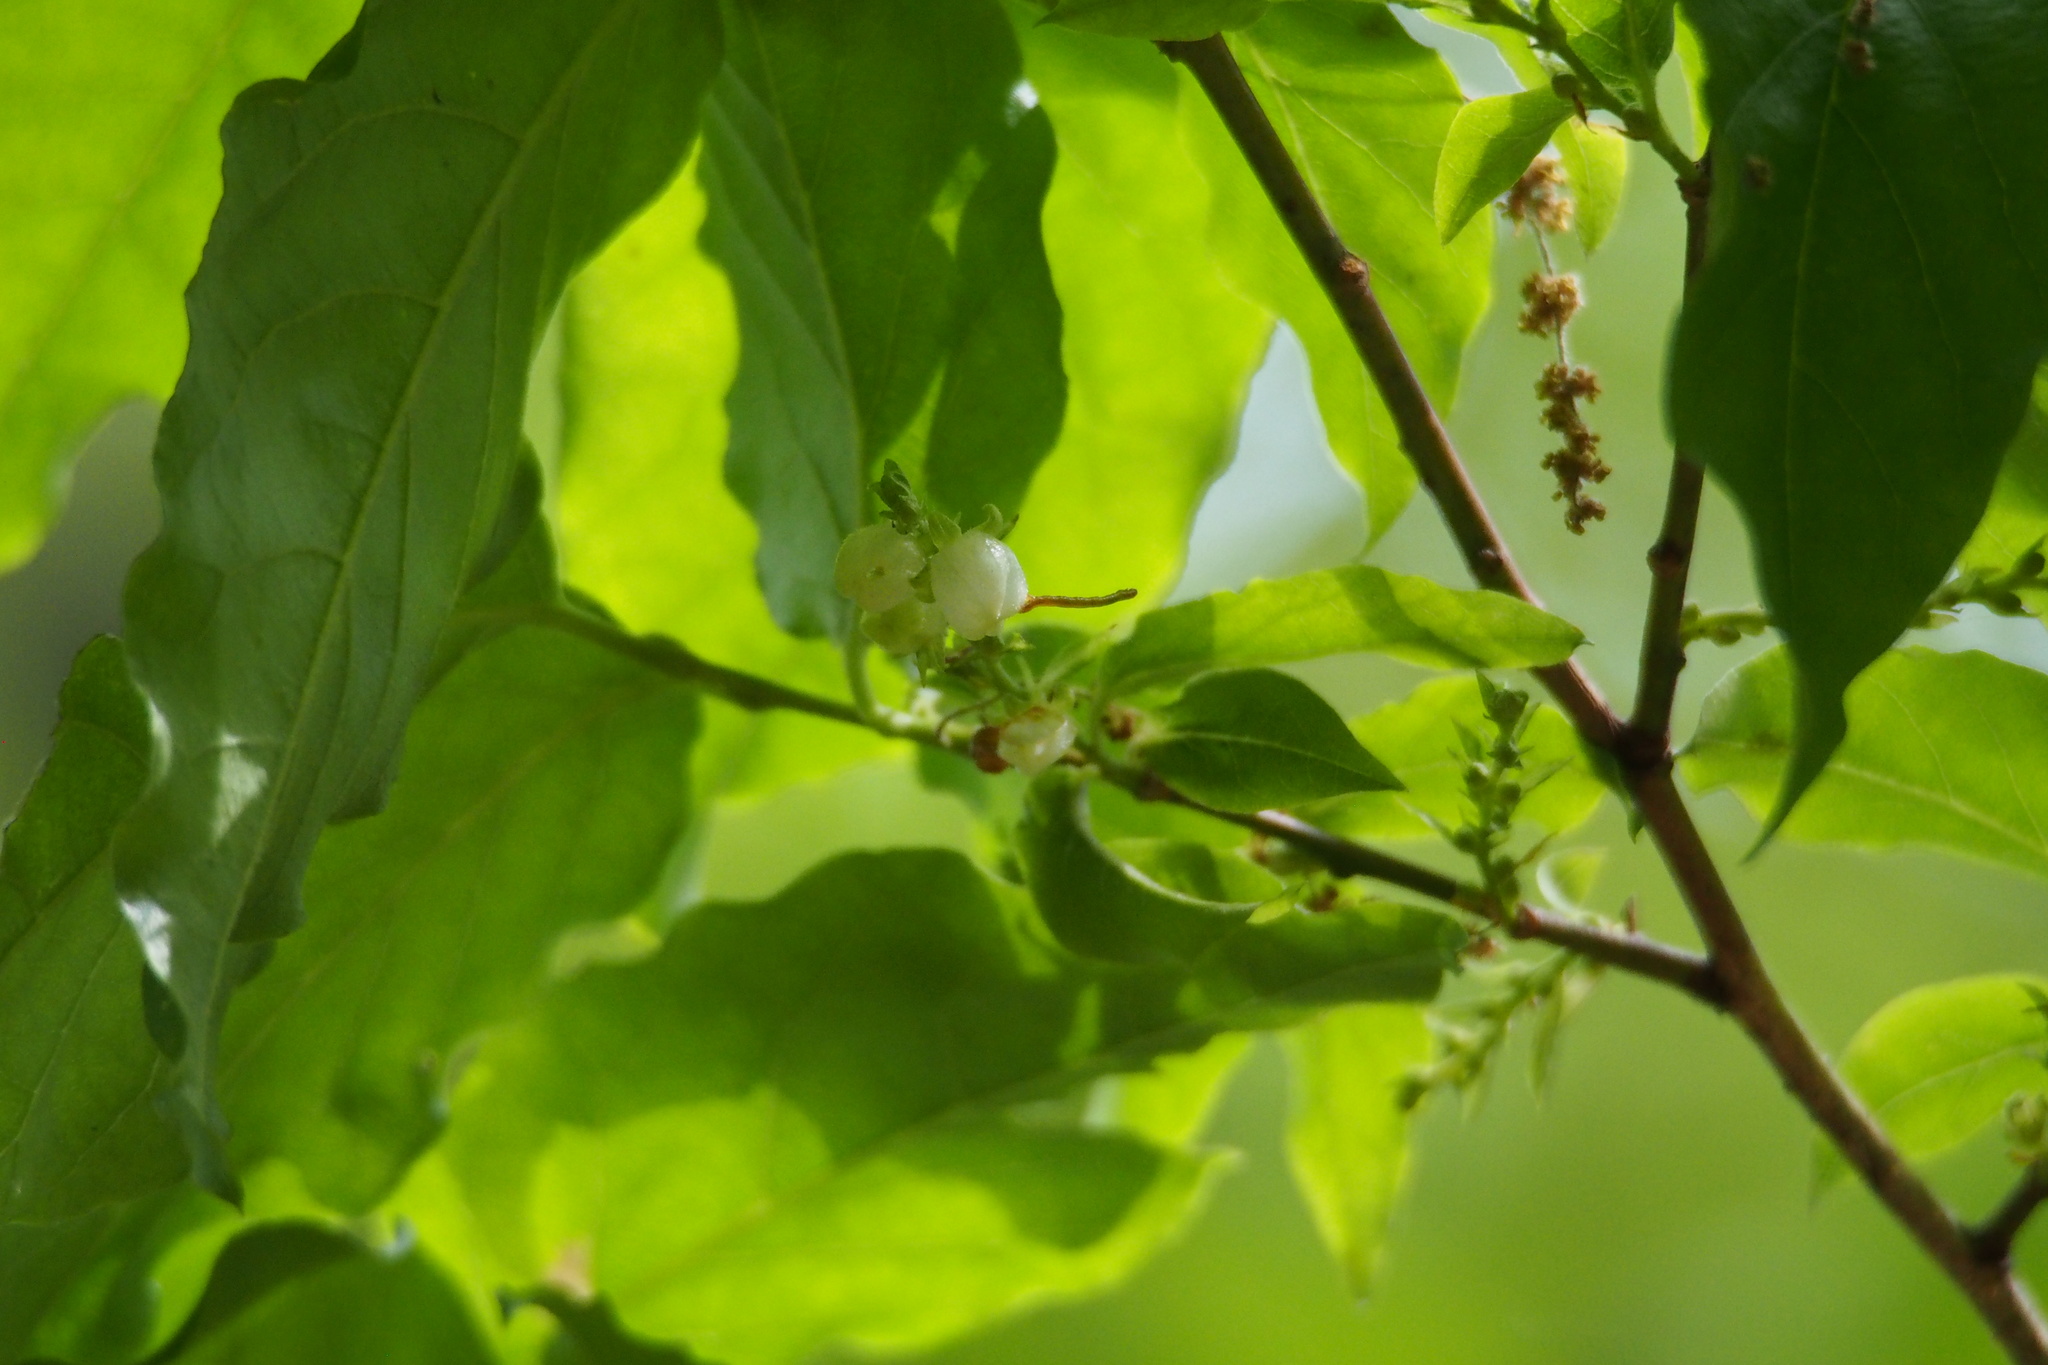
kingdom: Plantae
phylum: Tracheophyta
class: Magnoliopsida
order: Ericales
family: Ericaceae
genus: Lyonia
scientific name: Lyonia ovalifolia
